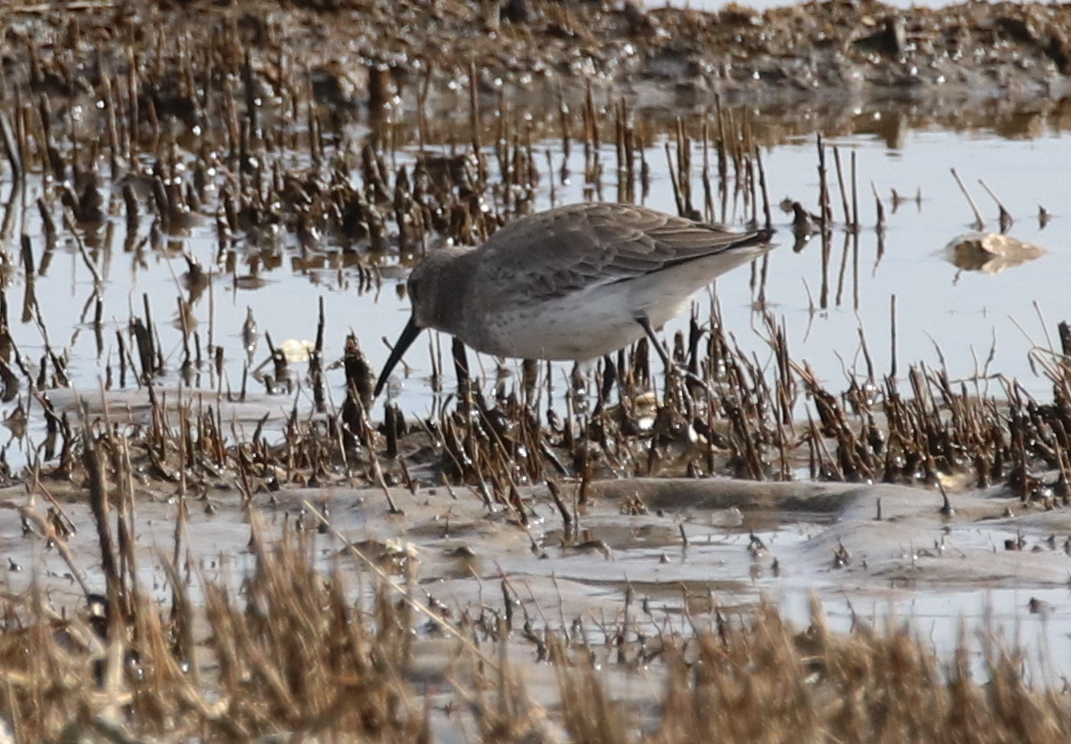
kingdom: Animalia
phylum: Chordata
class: Aves
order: Charadriiformes
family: Scolopacidae
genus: Calidris
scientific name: Calidris alpina
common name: Dunlin
